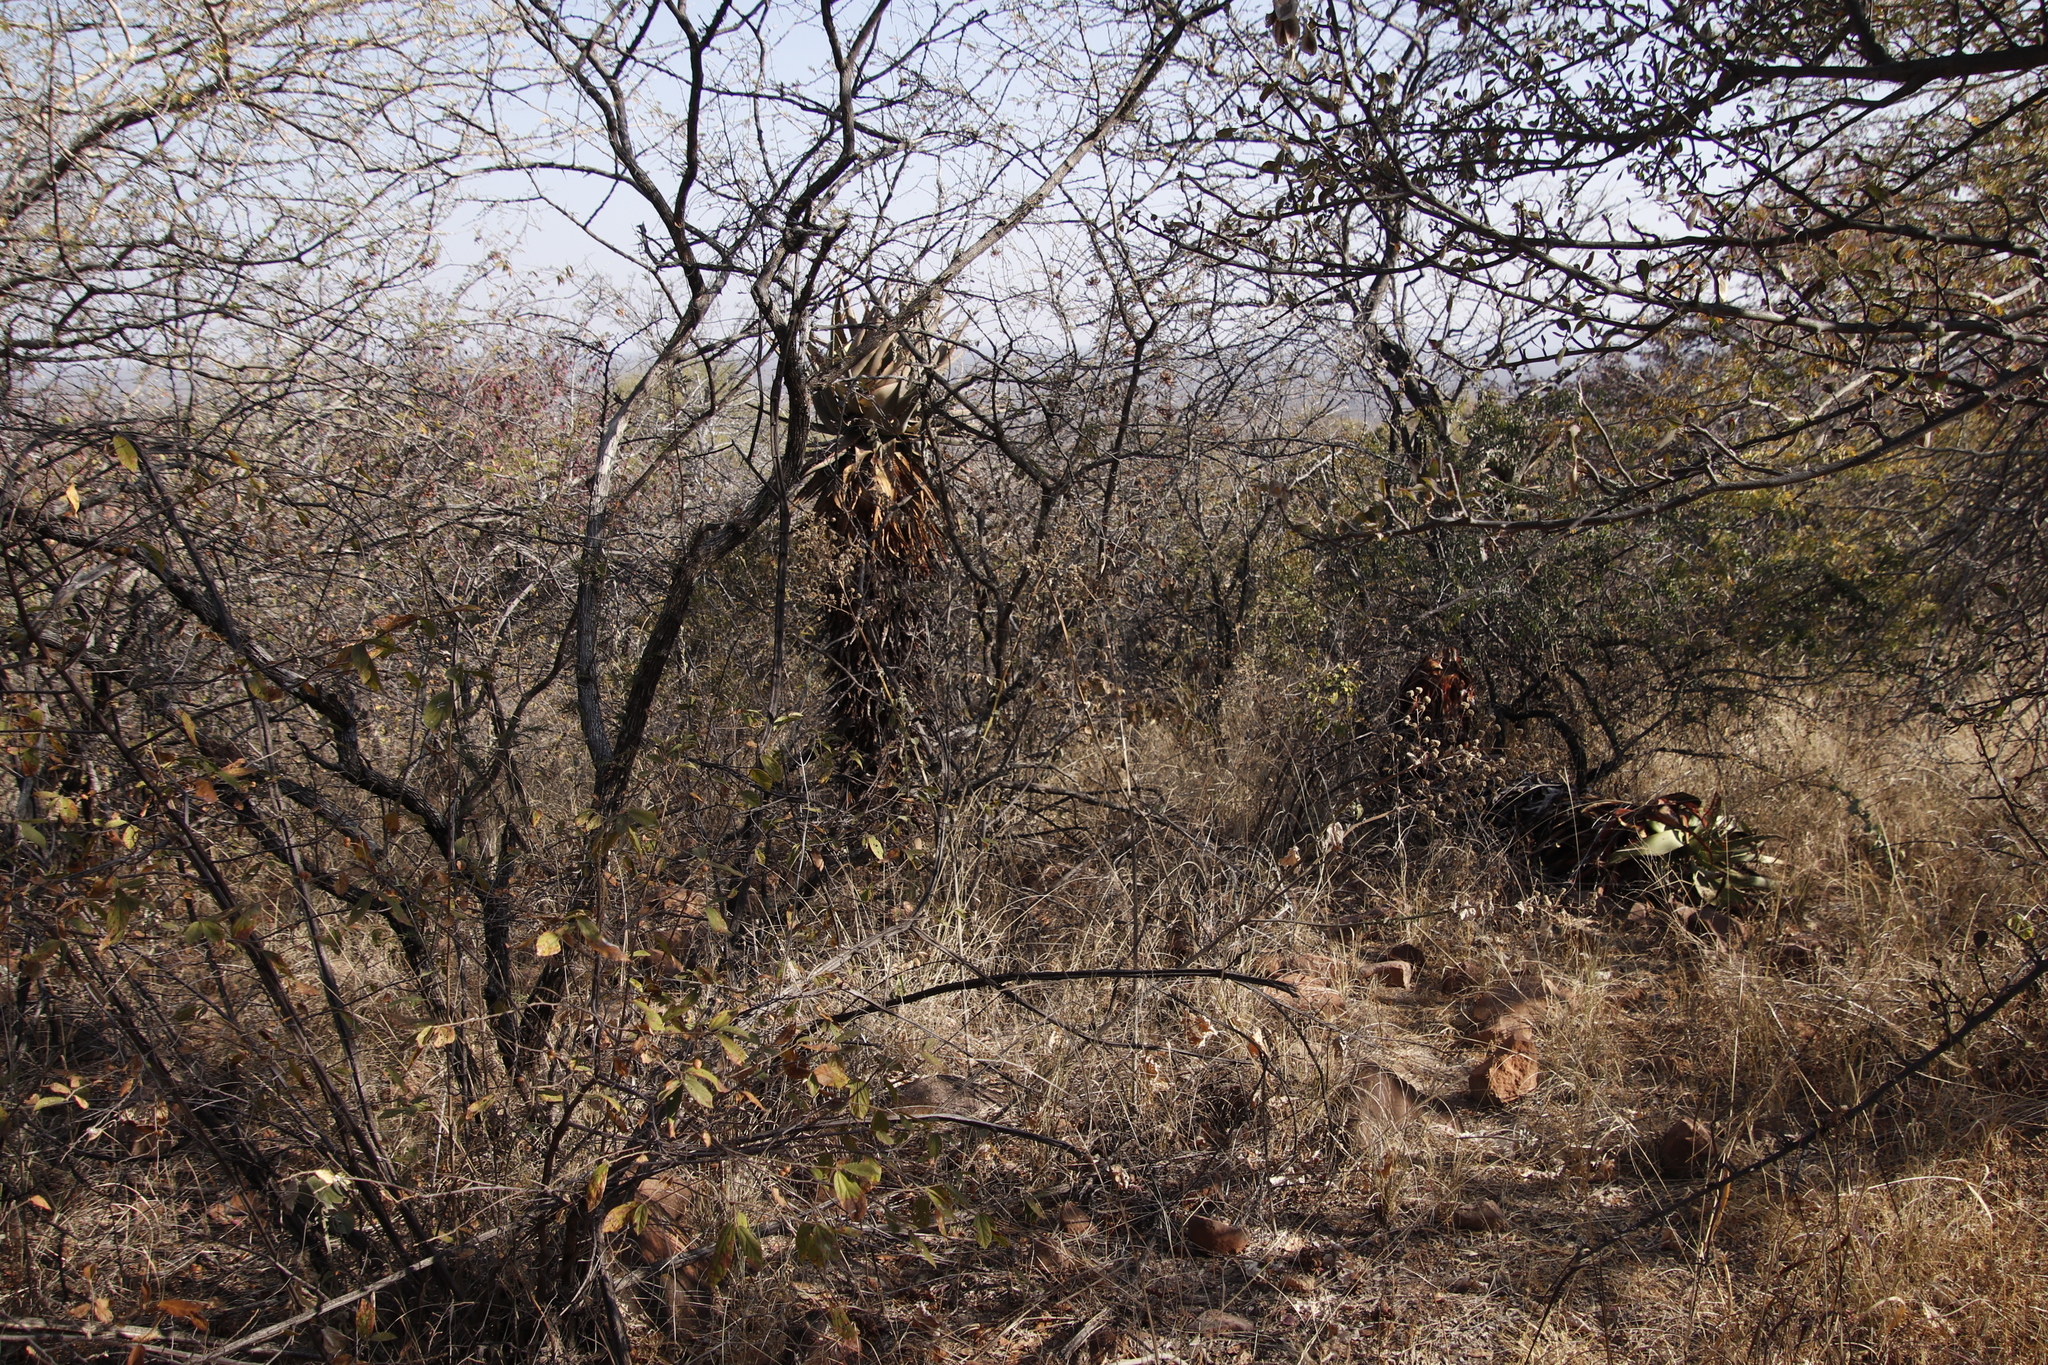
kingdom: Plantae
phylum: Tracheophyta
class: Liliopsida
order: Asparagales
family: Asphodelaceae
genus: Aloe
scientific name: Aloe littoralis
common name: Luanda tree aloe
